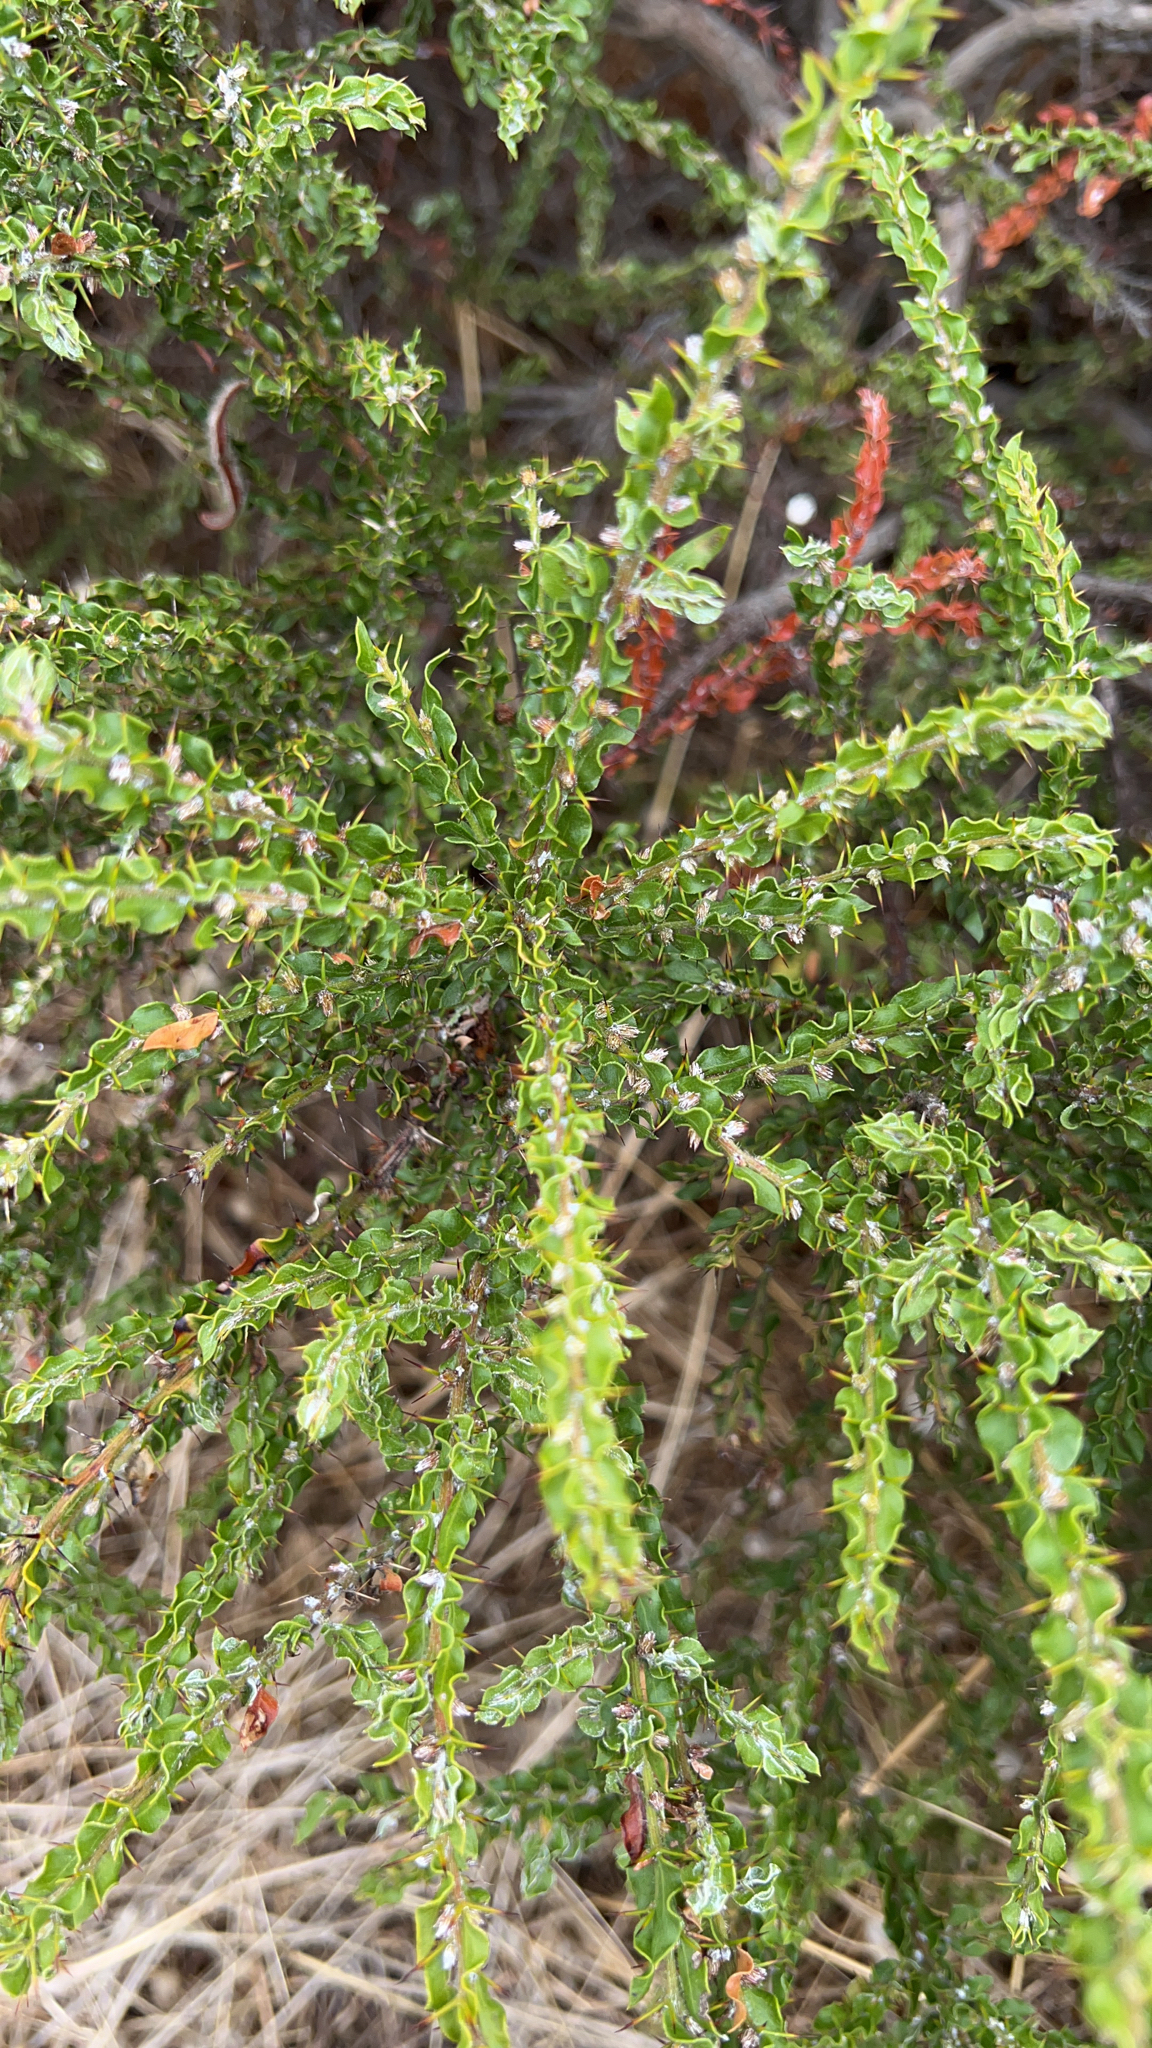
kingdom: Plantae
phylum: Tracheophyta
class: Magnoliopsida
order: Fabales
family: Fabaceae
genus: Acacia
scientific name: Acacia paradoxa
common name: Paradox acacia
